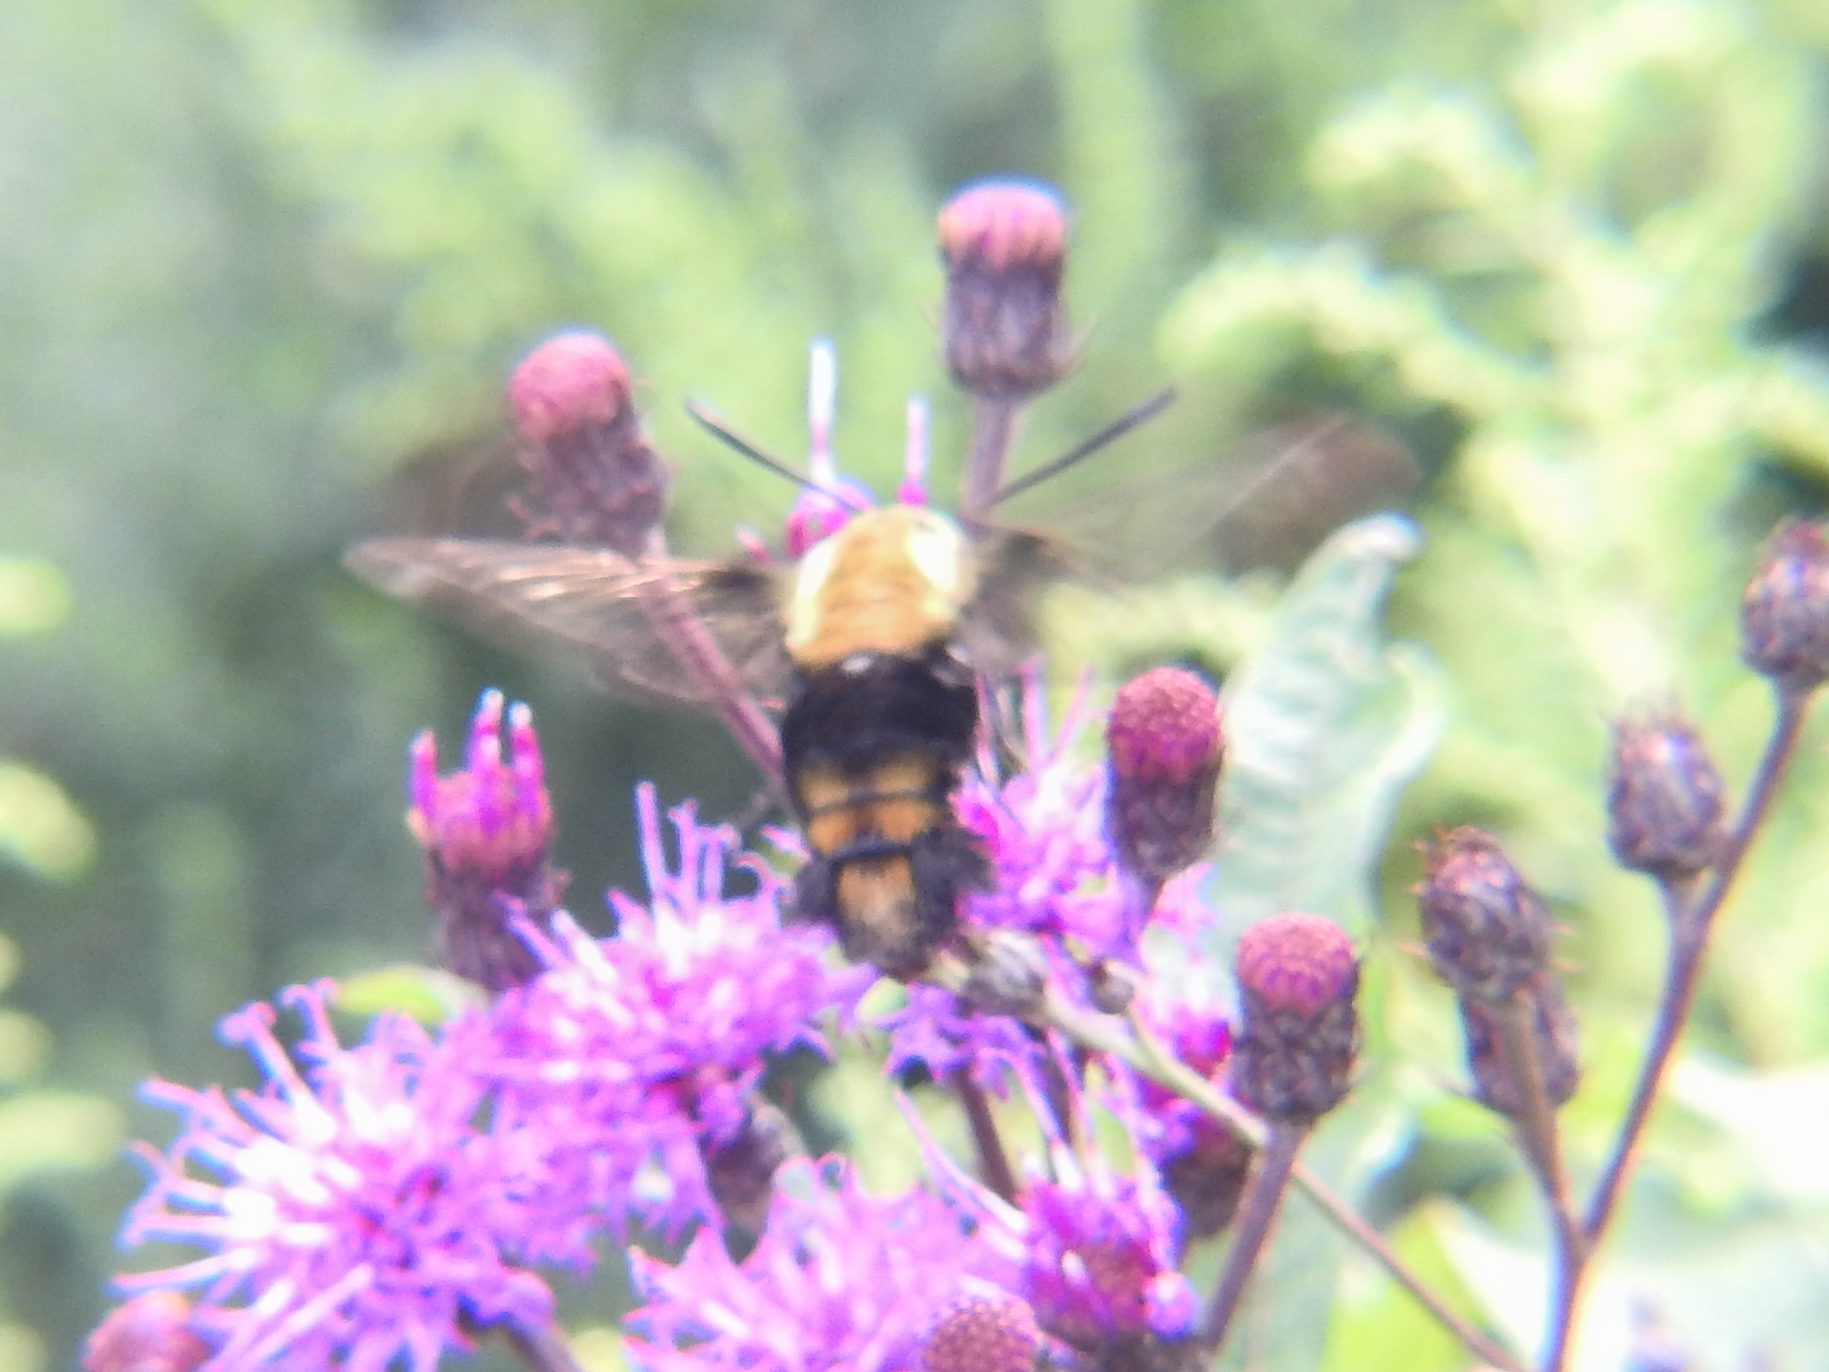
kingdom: Animalia
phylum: Arthropoda
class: Insecta
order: Lepidoptera
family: Sphingidae
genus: Hemaris
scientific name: Hemaris diffinis
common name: Bumblebee moth
